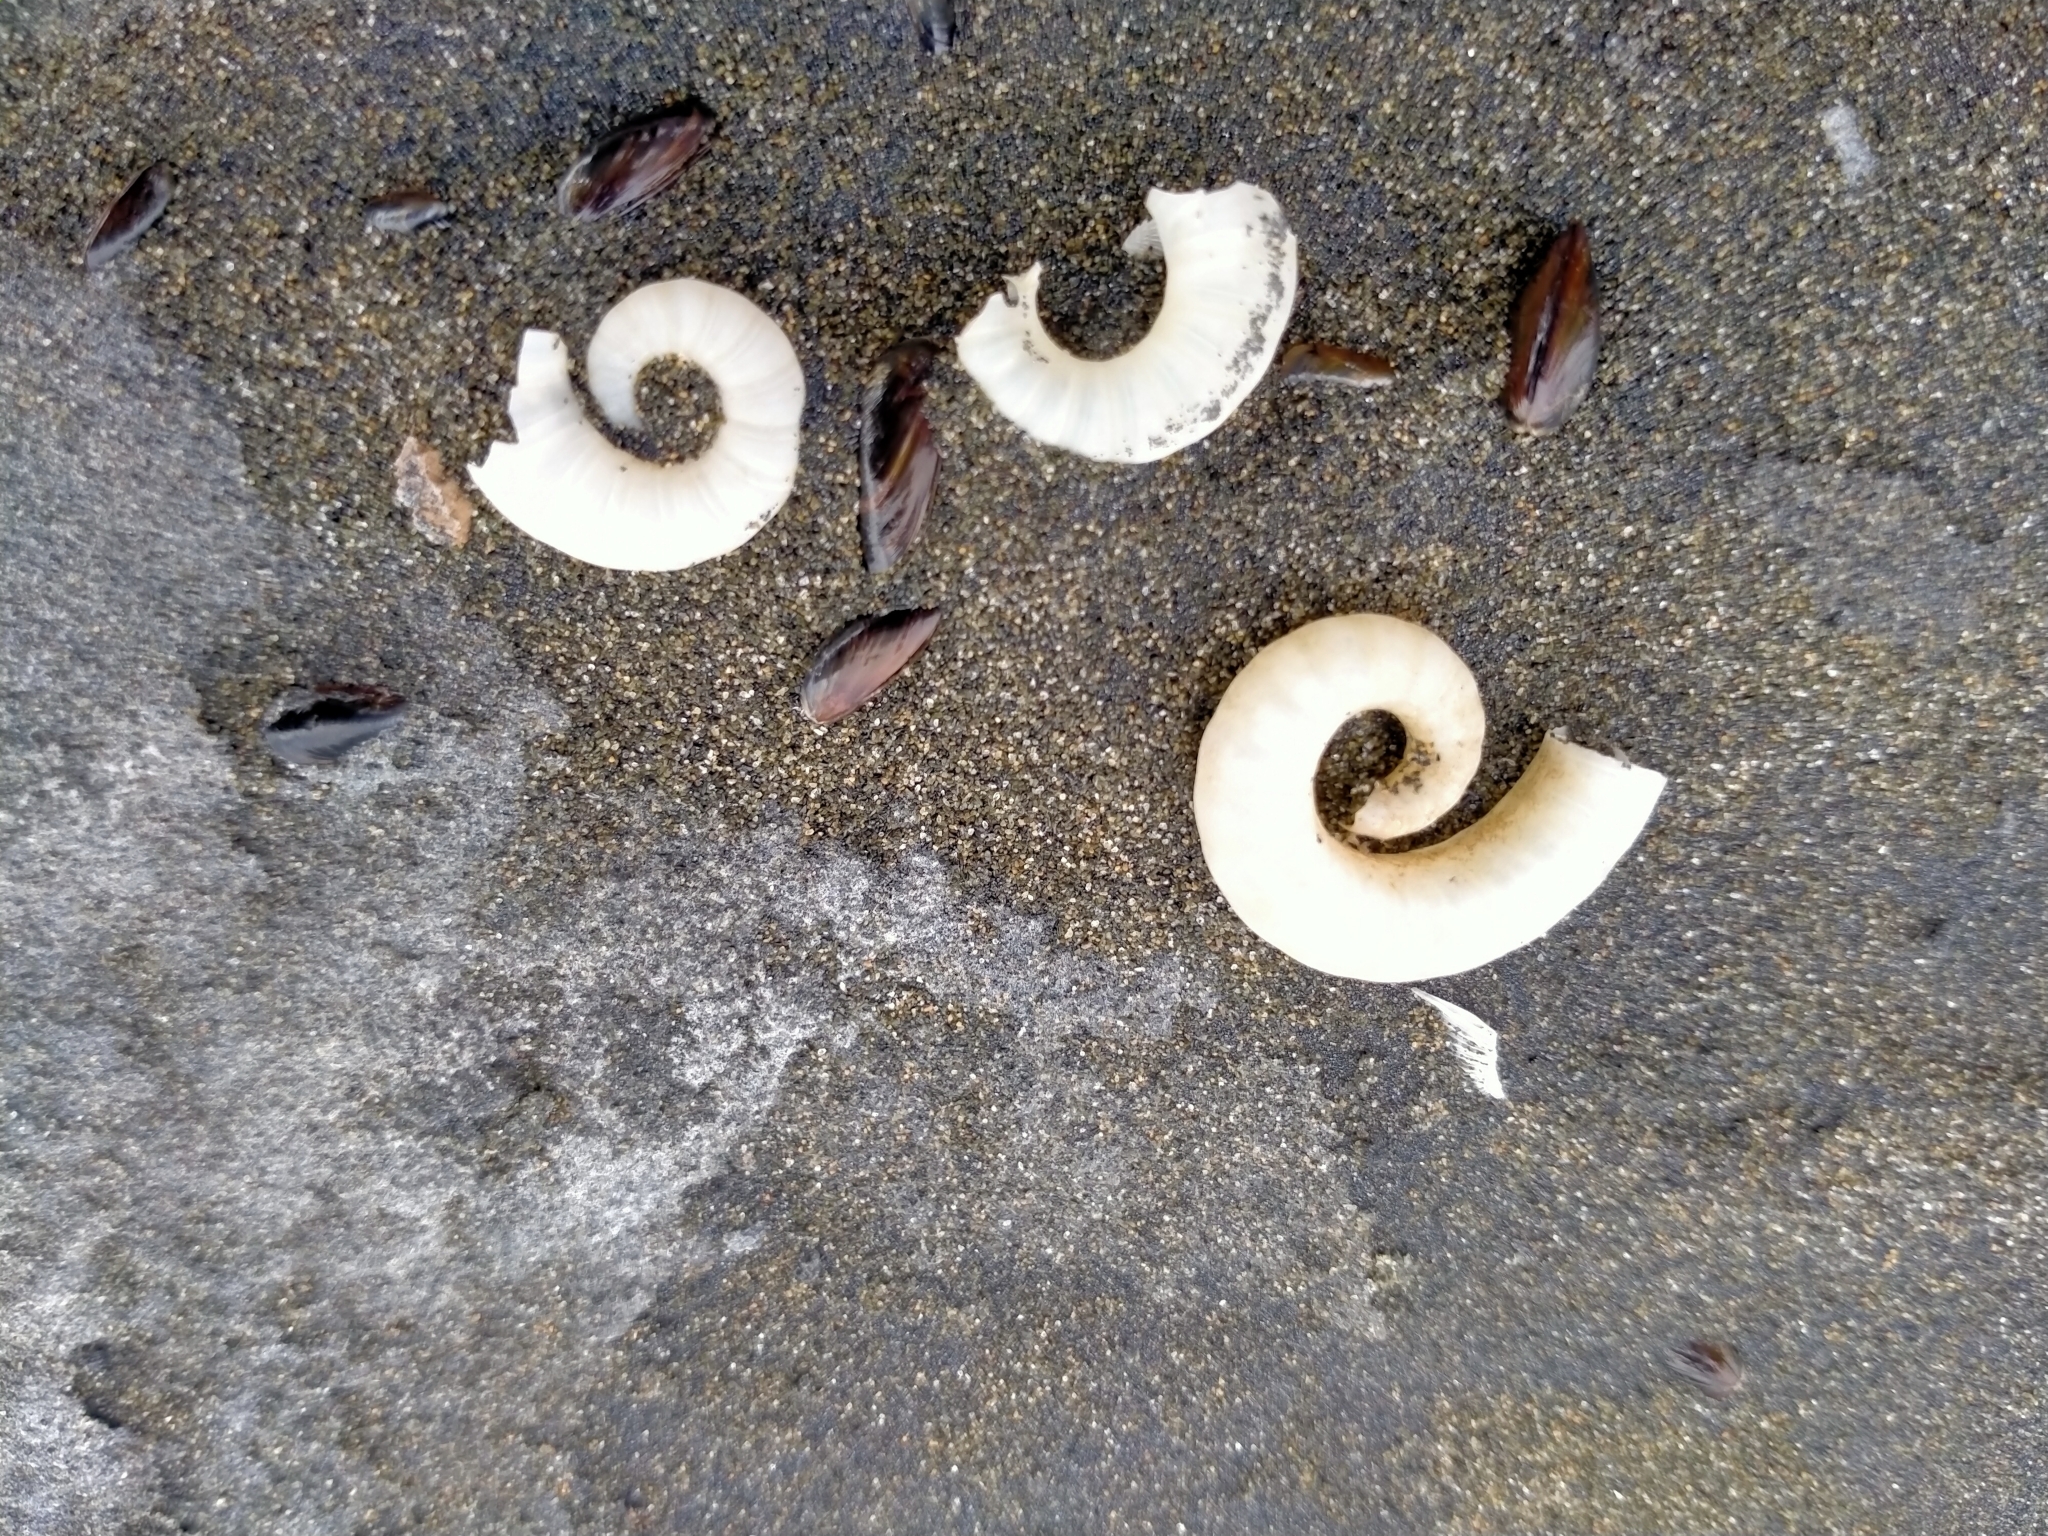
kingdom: Animalia
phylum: Mollusca
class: Cephalopoda
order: Spirulida
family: Spirulidae
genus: Spirula
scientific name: Spirula spirula
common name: Ram's horn squid
